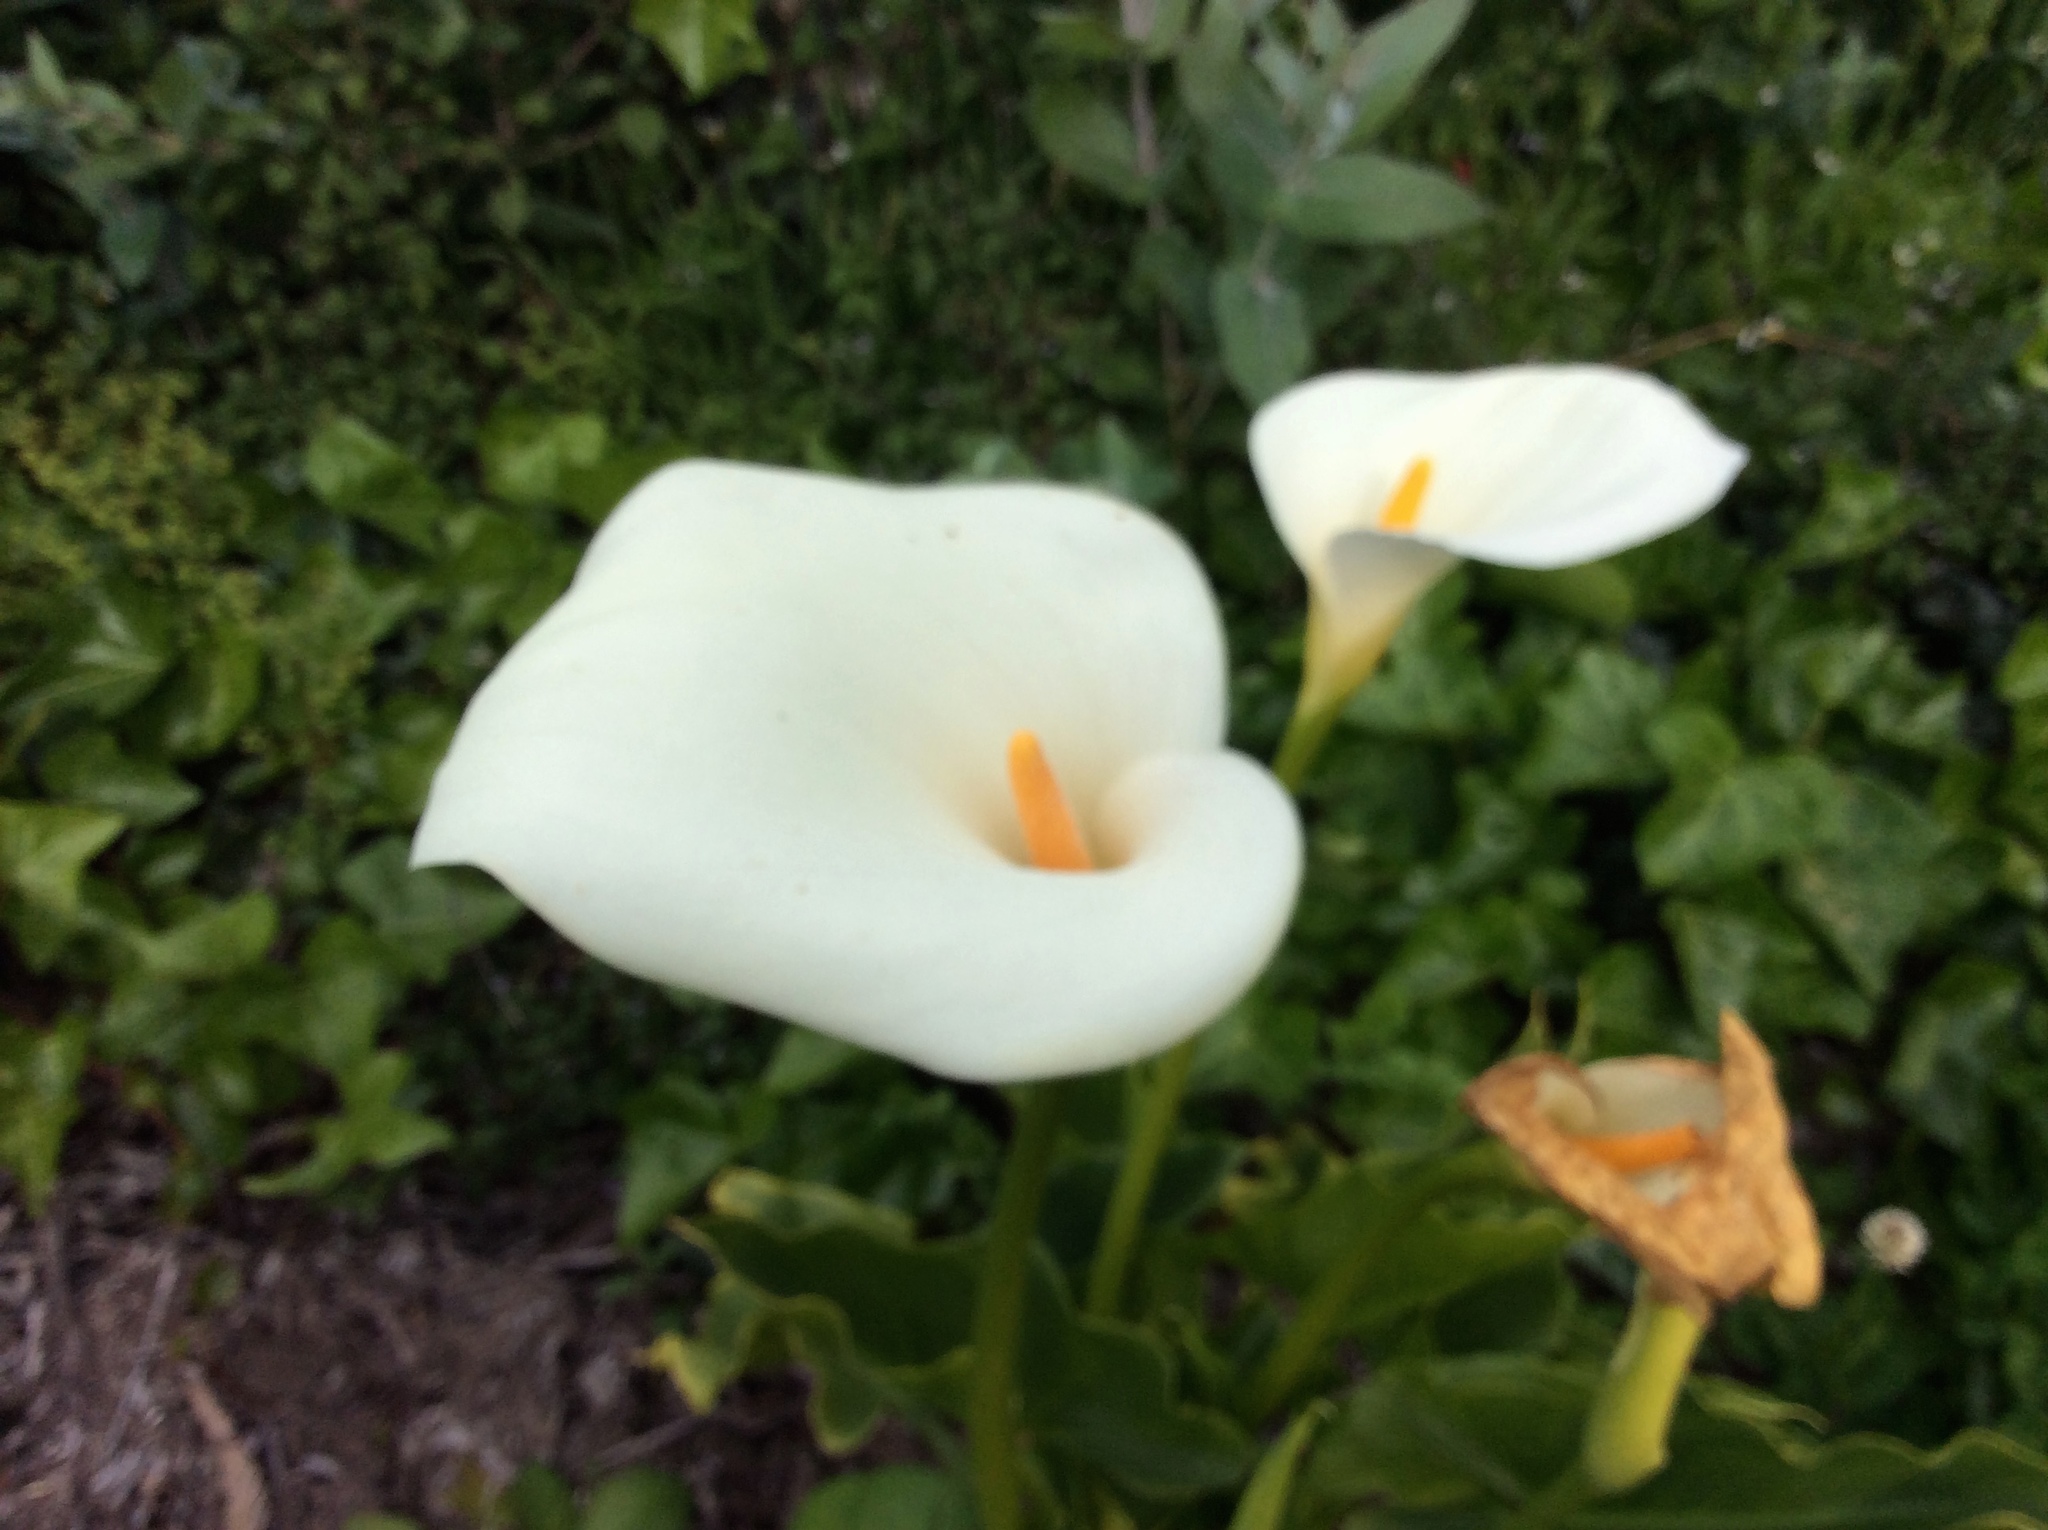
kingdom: Plantae
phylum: Tracheophyta
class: Liliopsida
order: Alismatales
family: Araceae
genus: Zantedeschia
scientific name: Zantedeschia aethiopica
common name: Altar-lily
